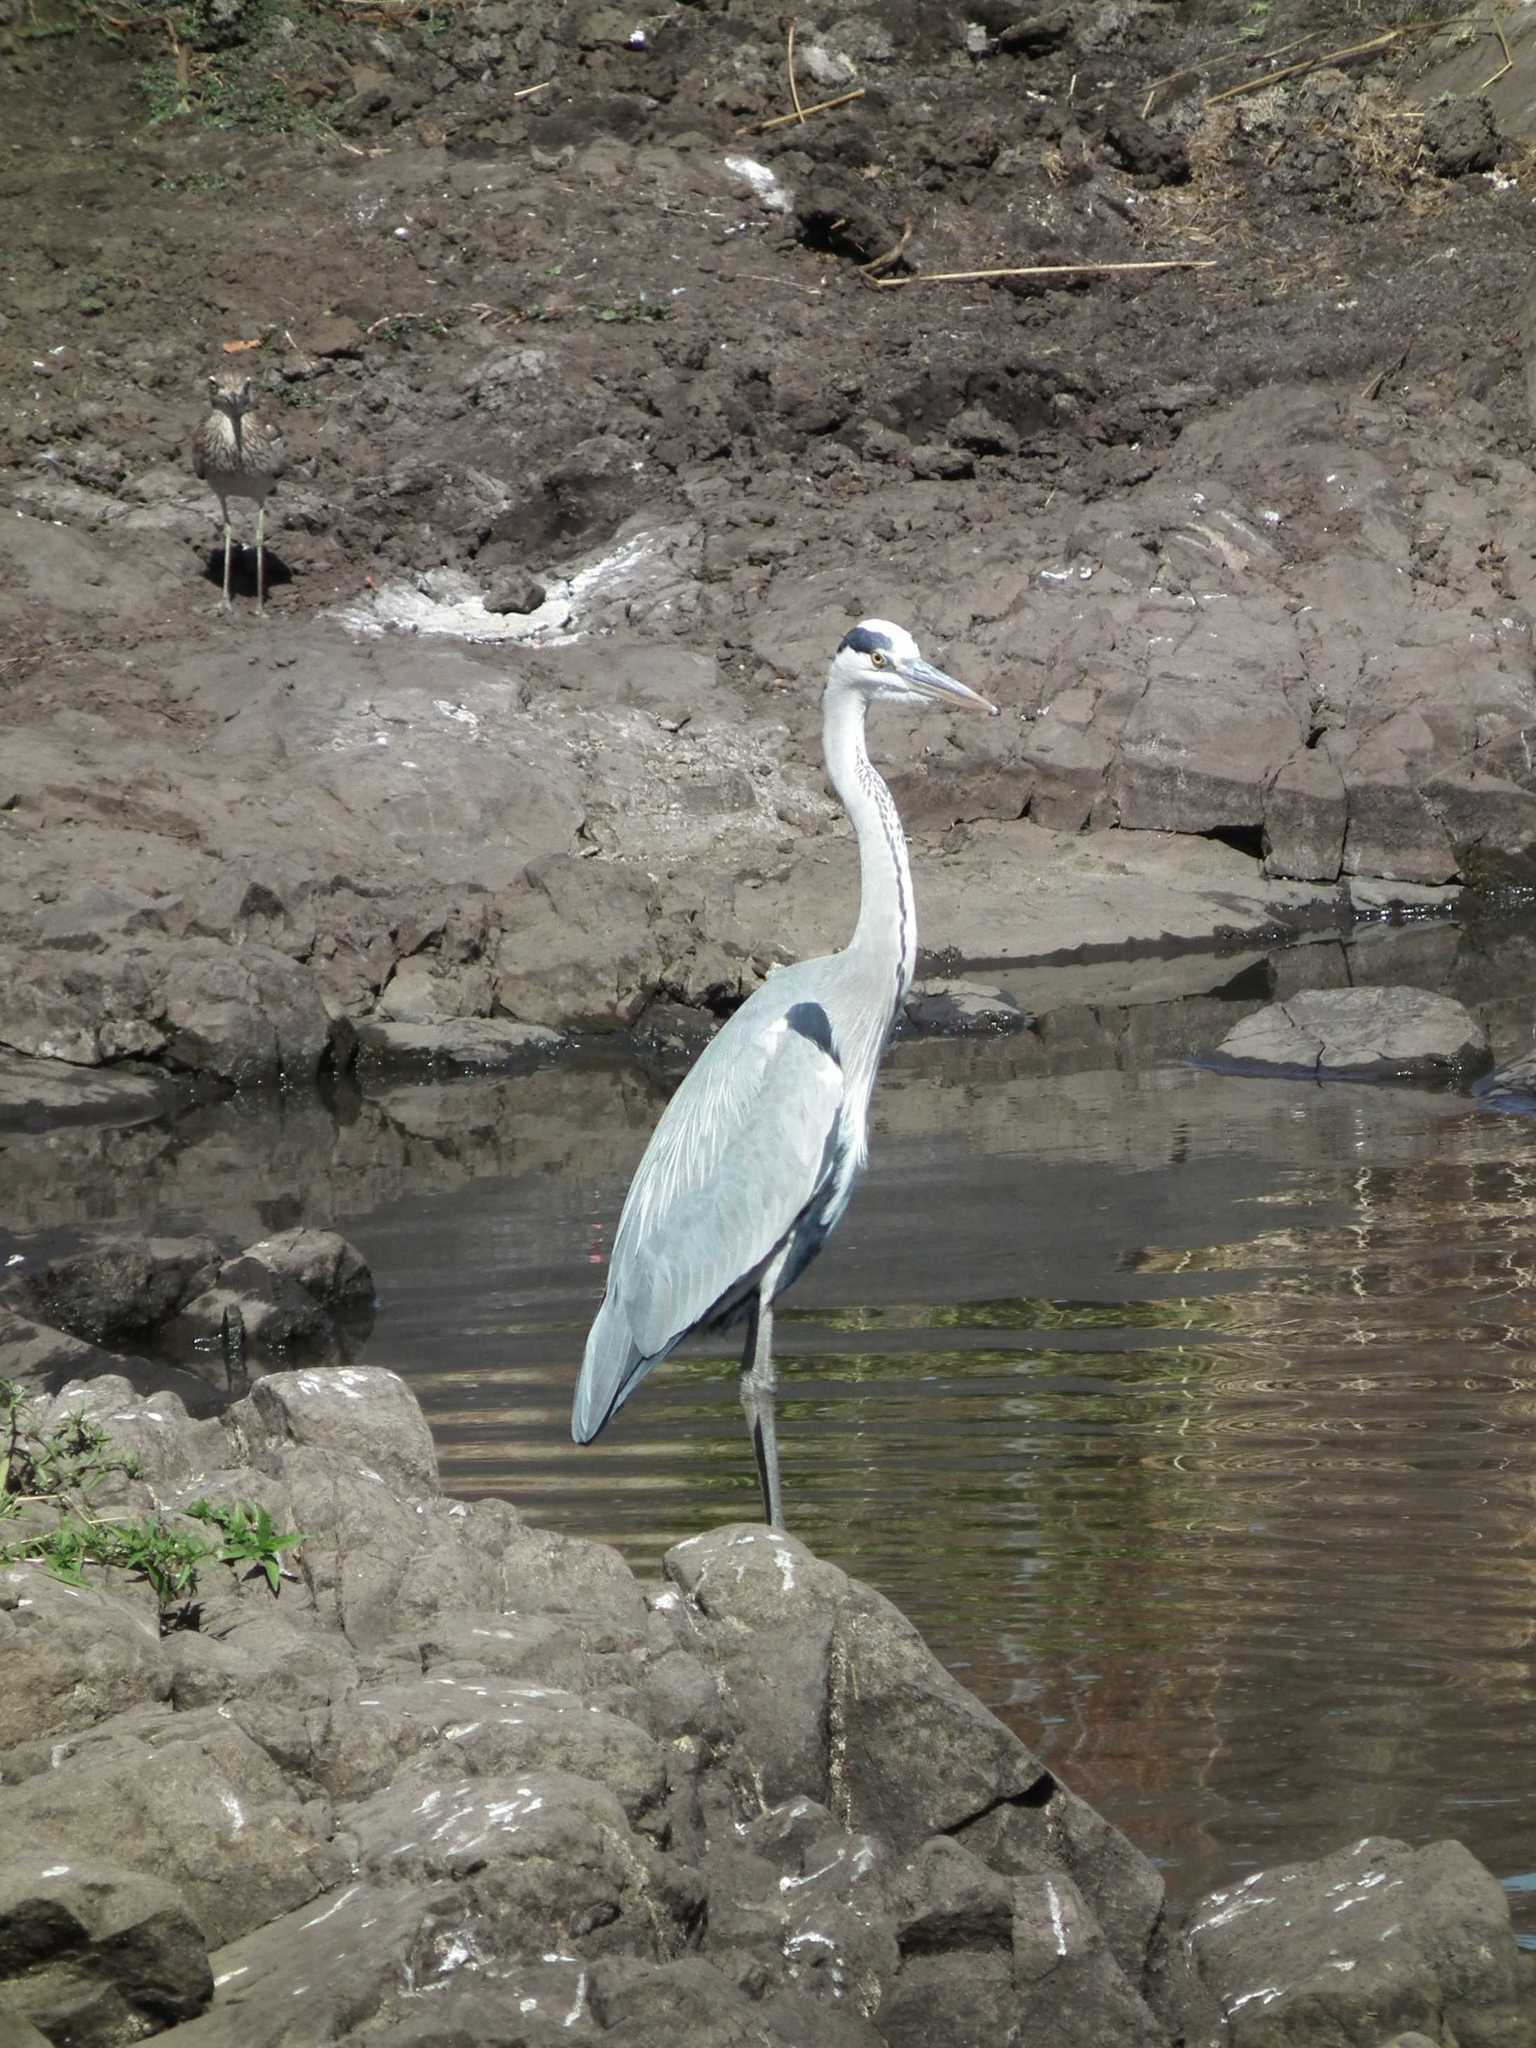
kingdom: Animalia
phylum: Chordata
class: Aves
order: Pelecaniformes
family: Ardeidae
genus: Ardea
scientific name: Ardea cinerea
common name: Grey heron
